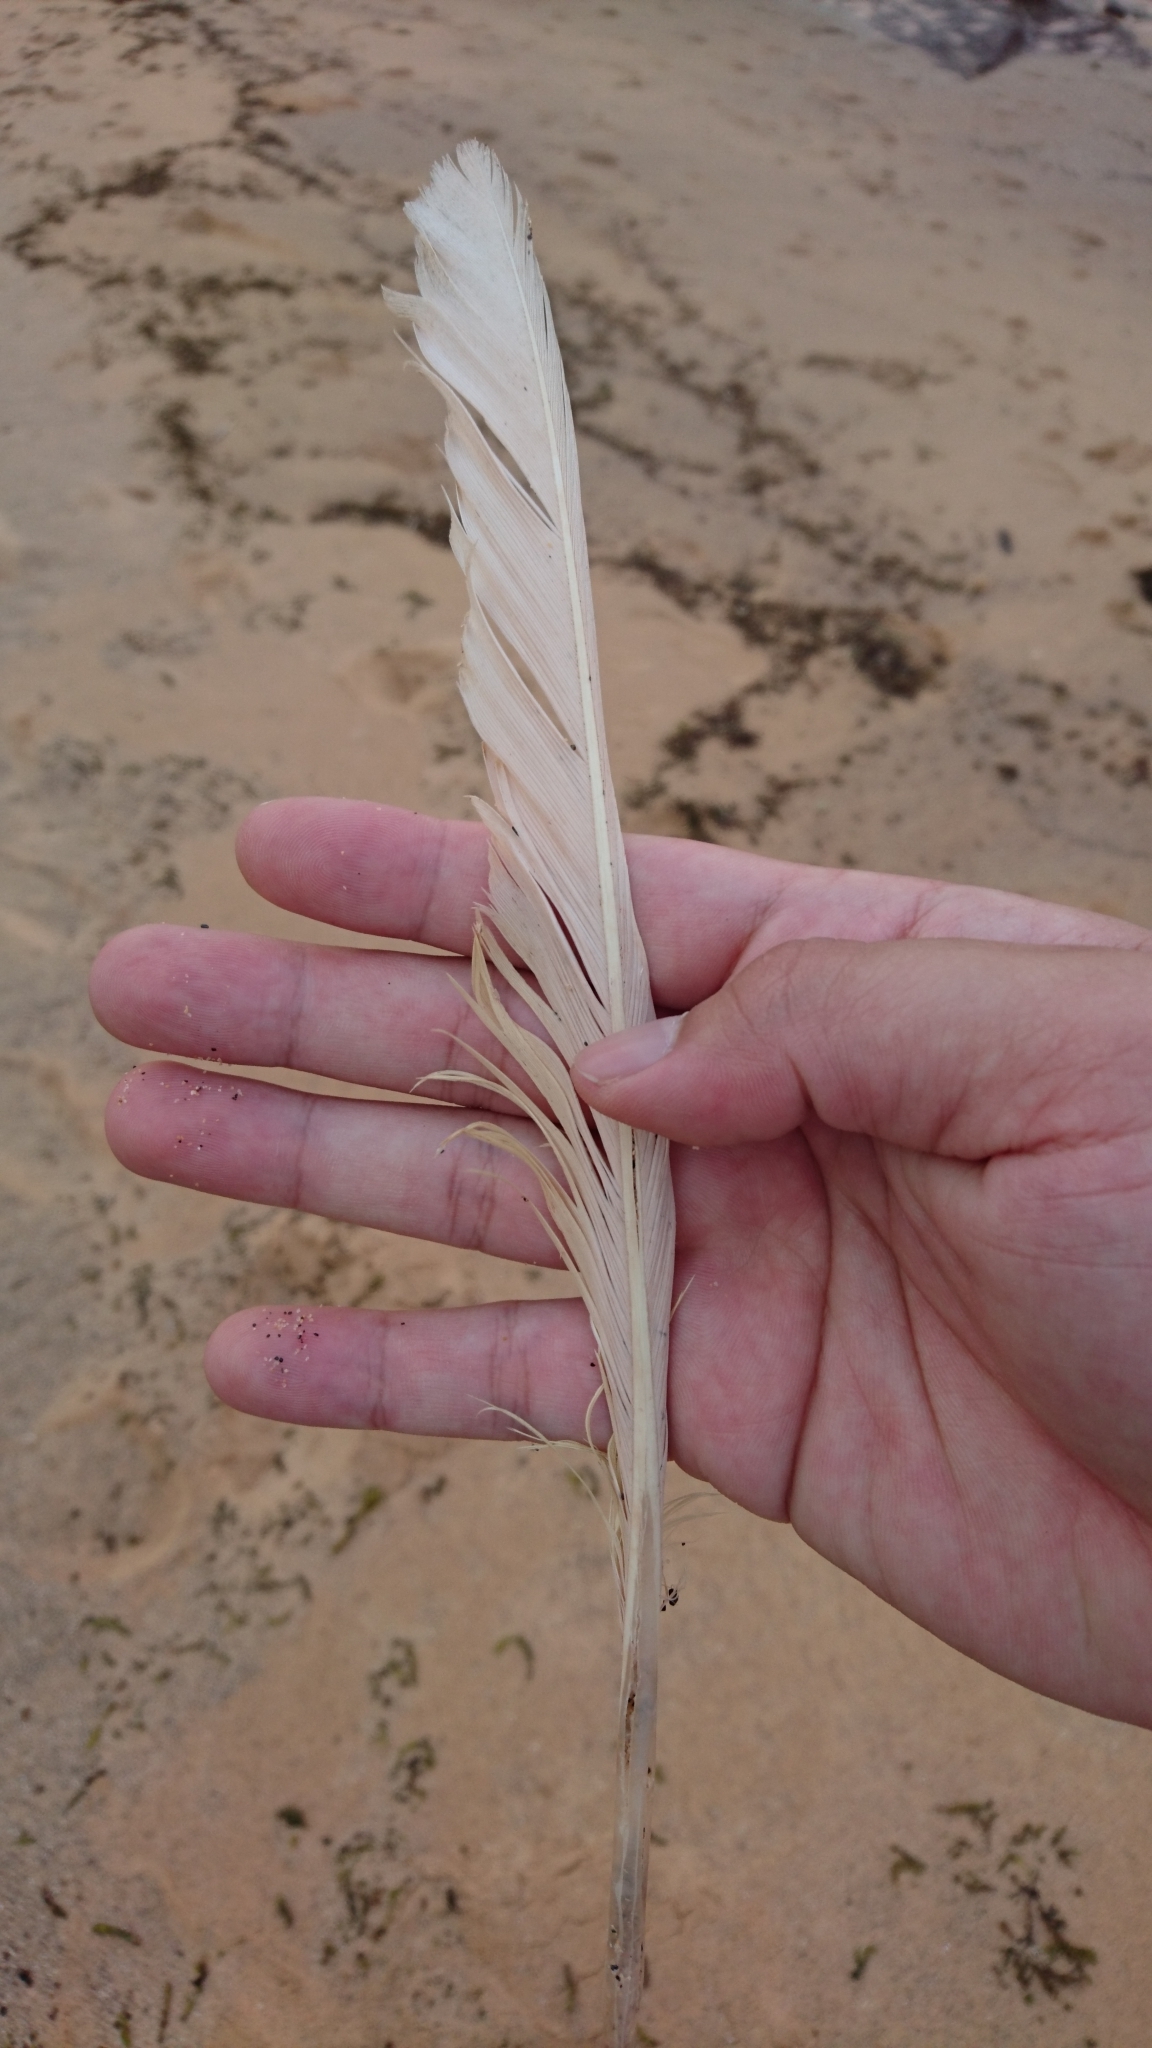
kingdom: Animalia
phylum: Chordata
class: Aves
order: Psittaciformes
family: Psittacidae
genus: Cacatua
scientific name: Cacatua galerita
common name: Sulphur-crested cockatoo
